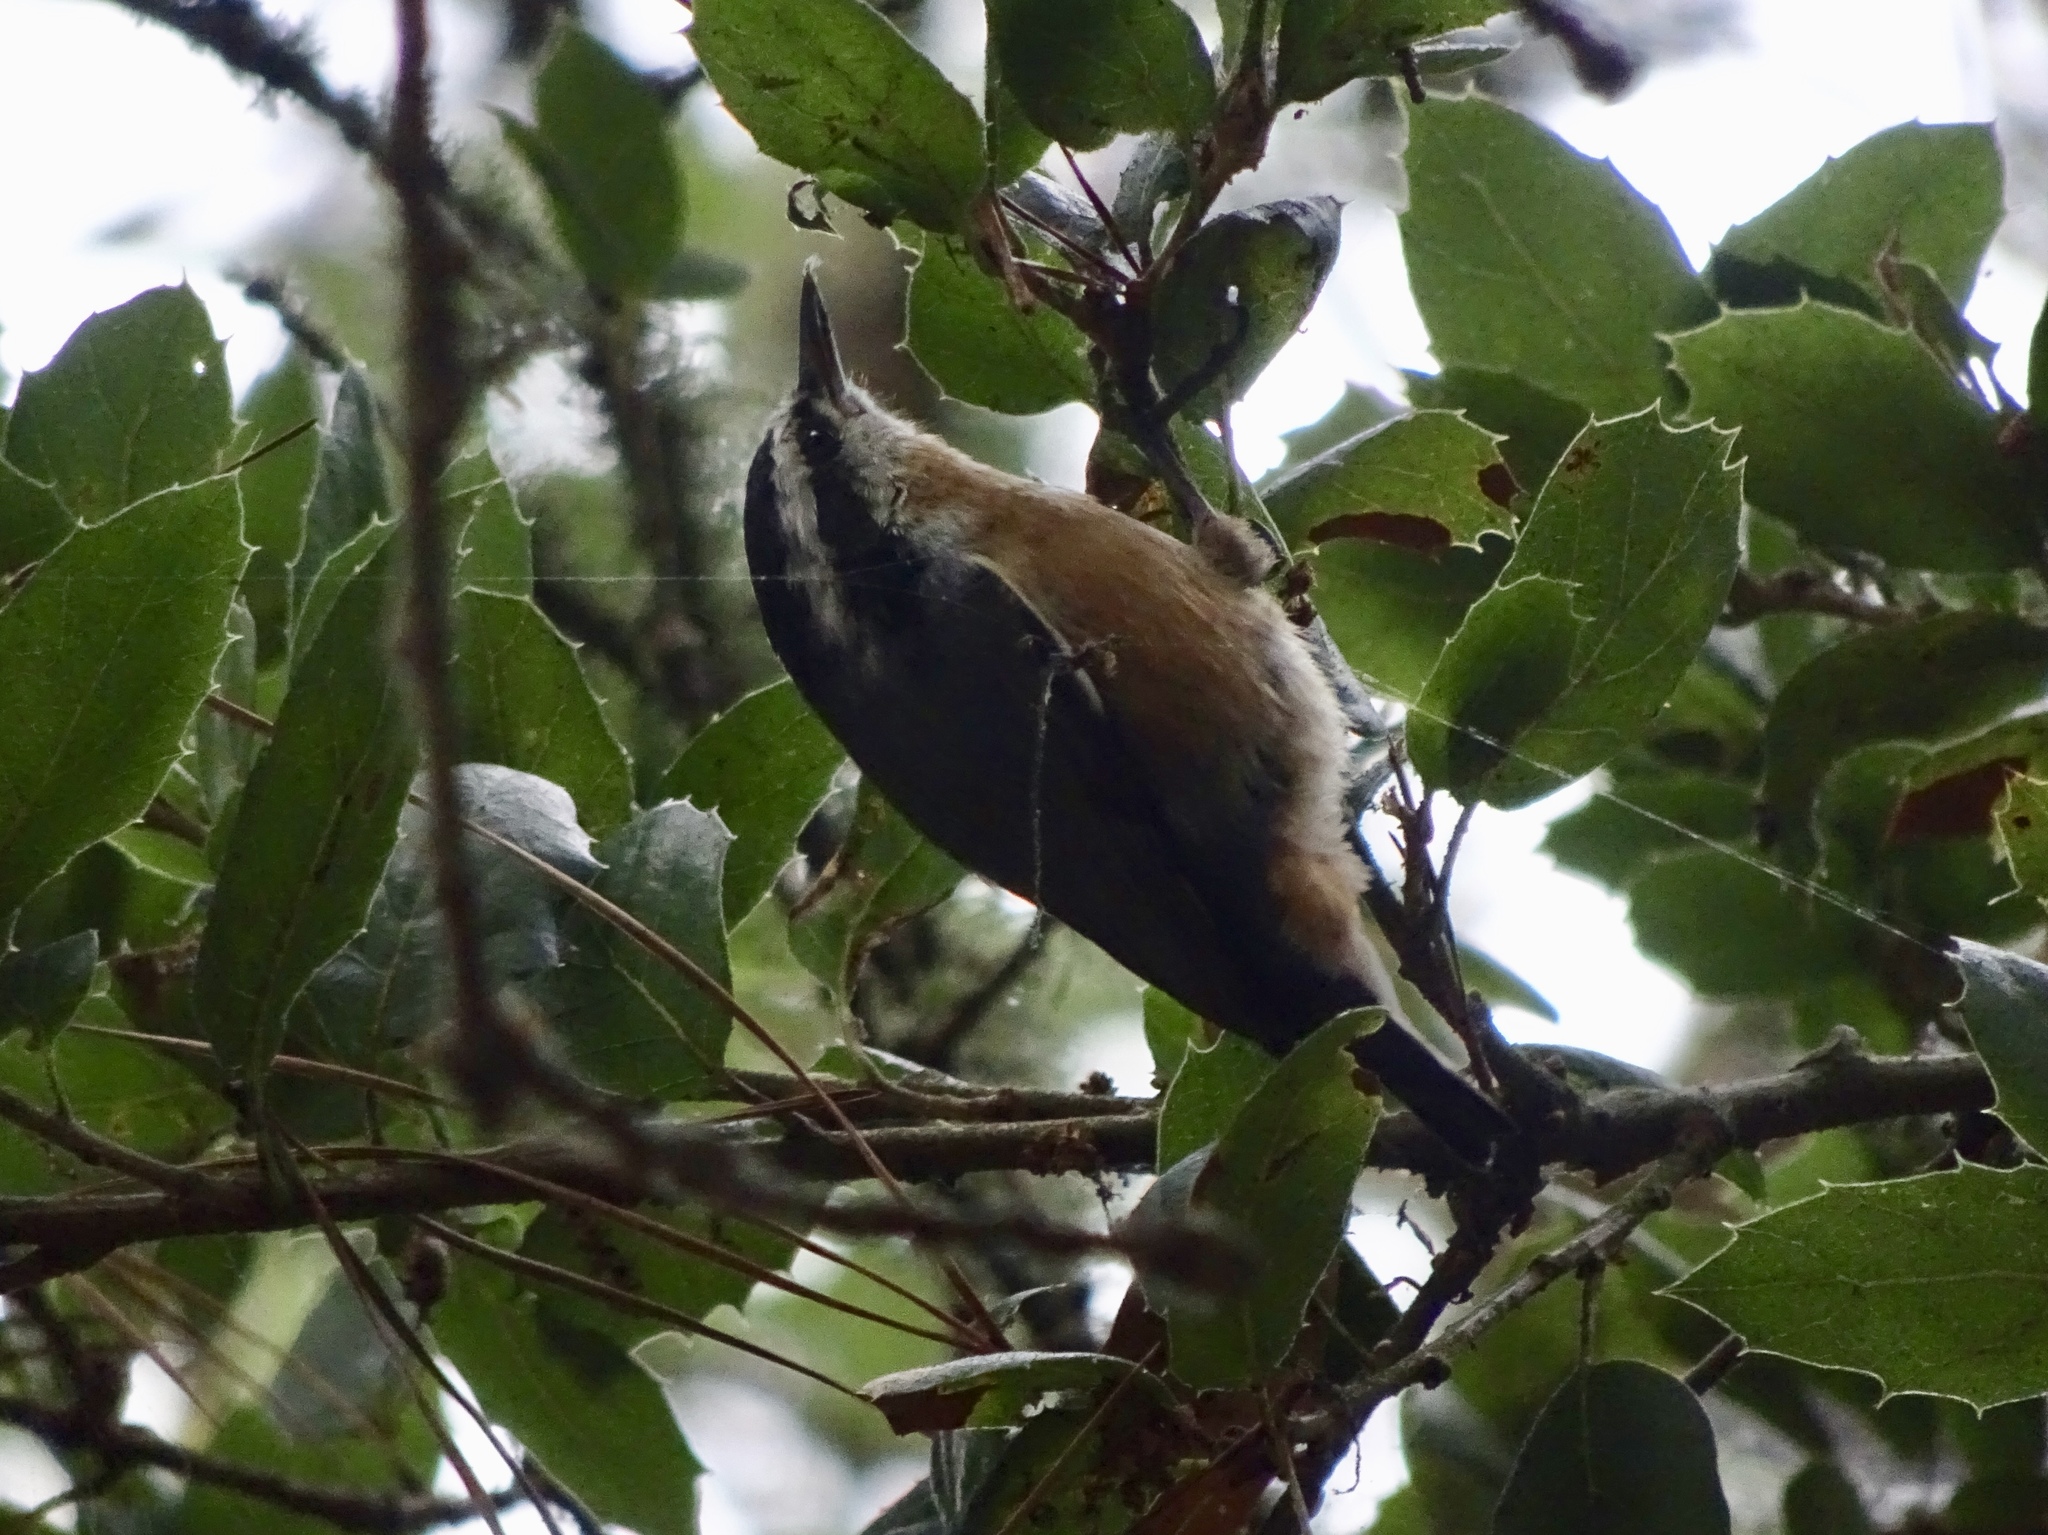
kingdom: Animalia
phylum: Chordata
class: Aves
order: Passeriformes
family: Sittidae
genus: Sitta
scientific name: Sitta canadensis
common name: Red-breasted nuthatch
